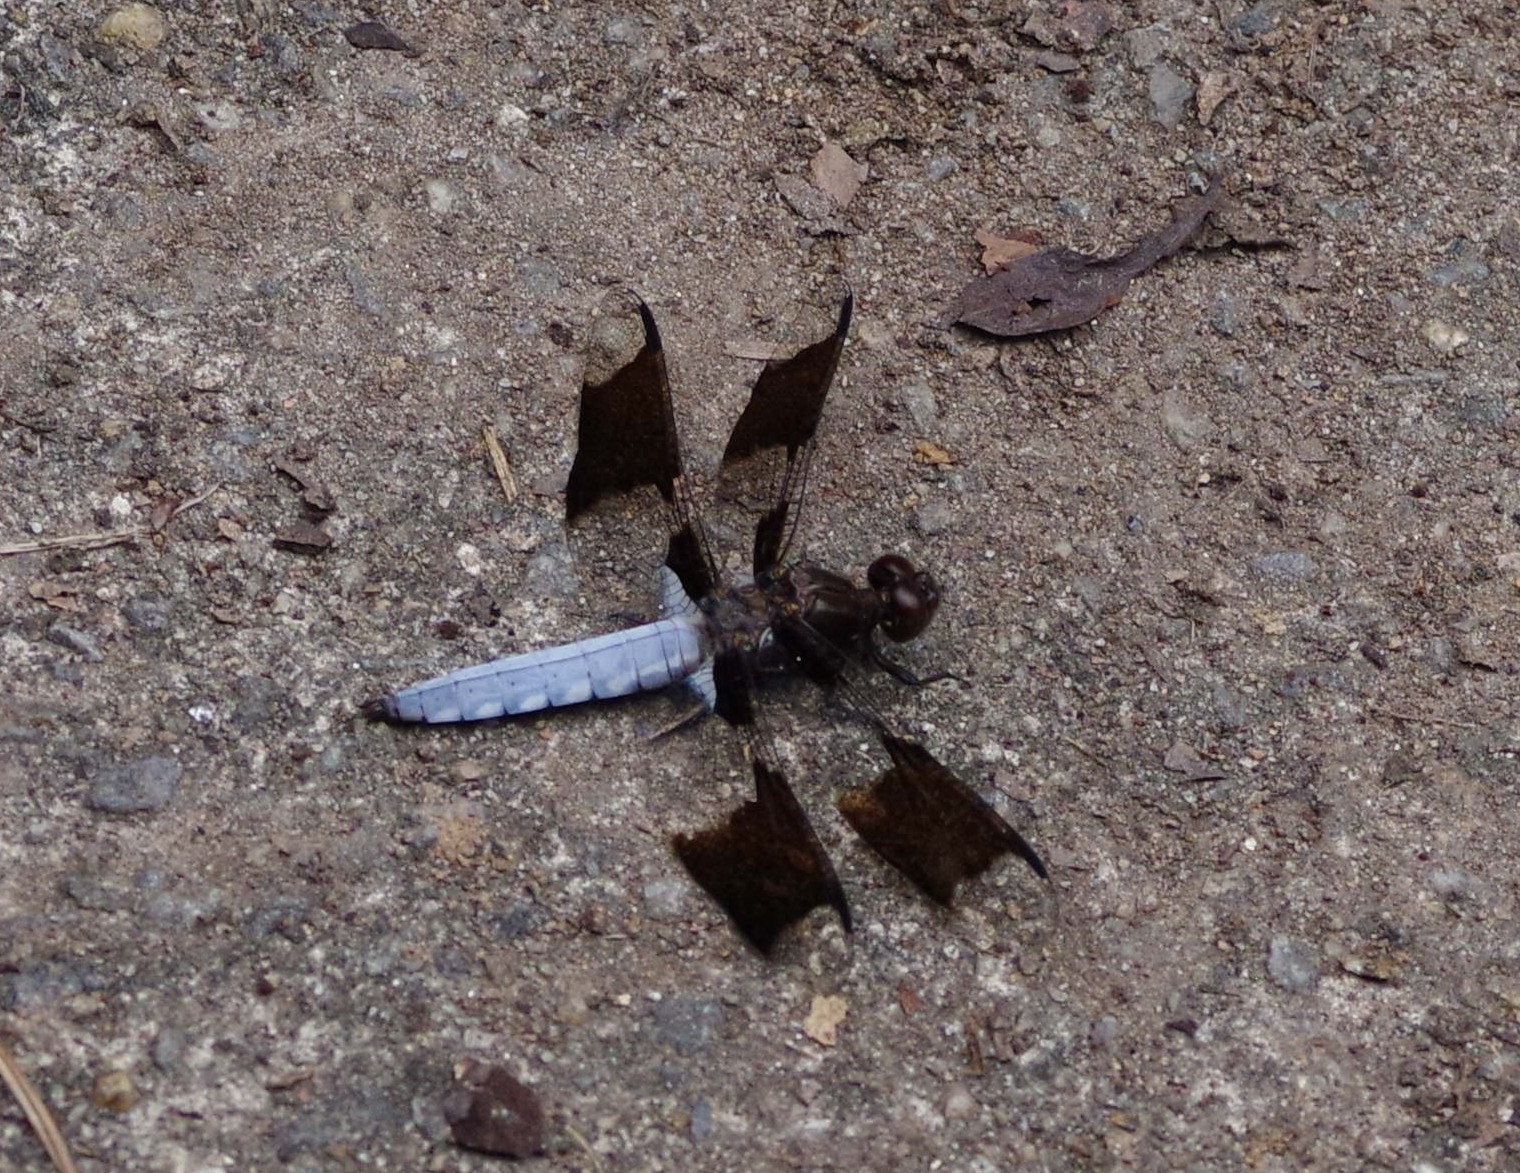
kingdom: Animalia
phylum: Arthropoda
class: Insecta
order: Odonata
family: Libellulidae
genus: Plathemis
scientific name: Plathemis lydia
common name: Common whitetail
